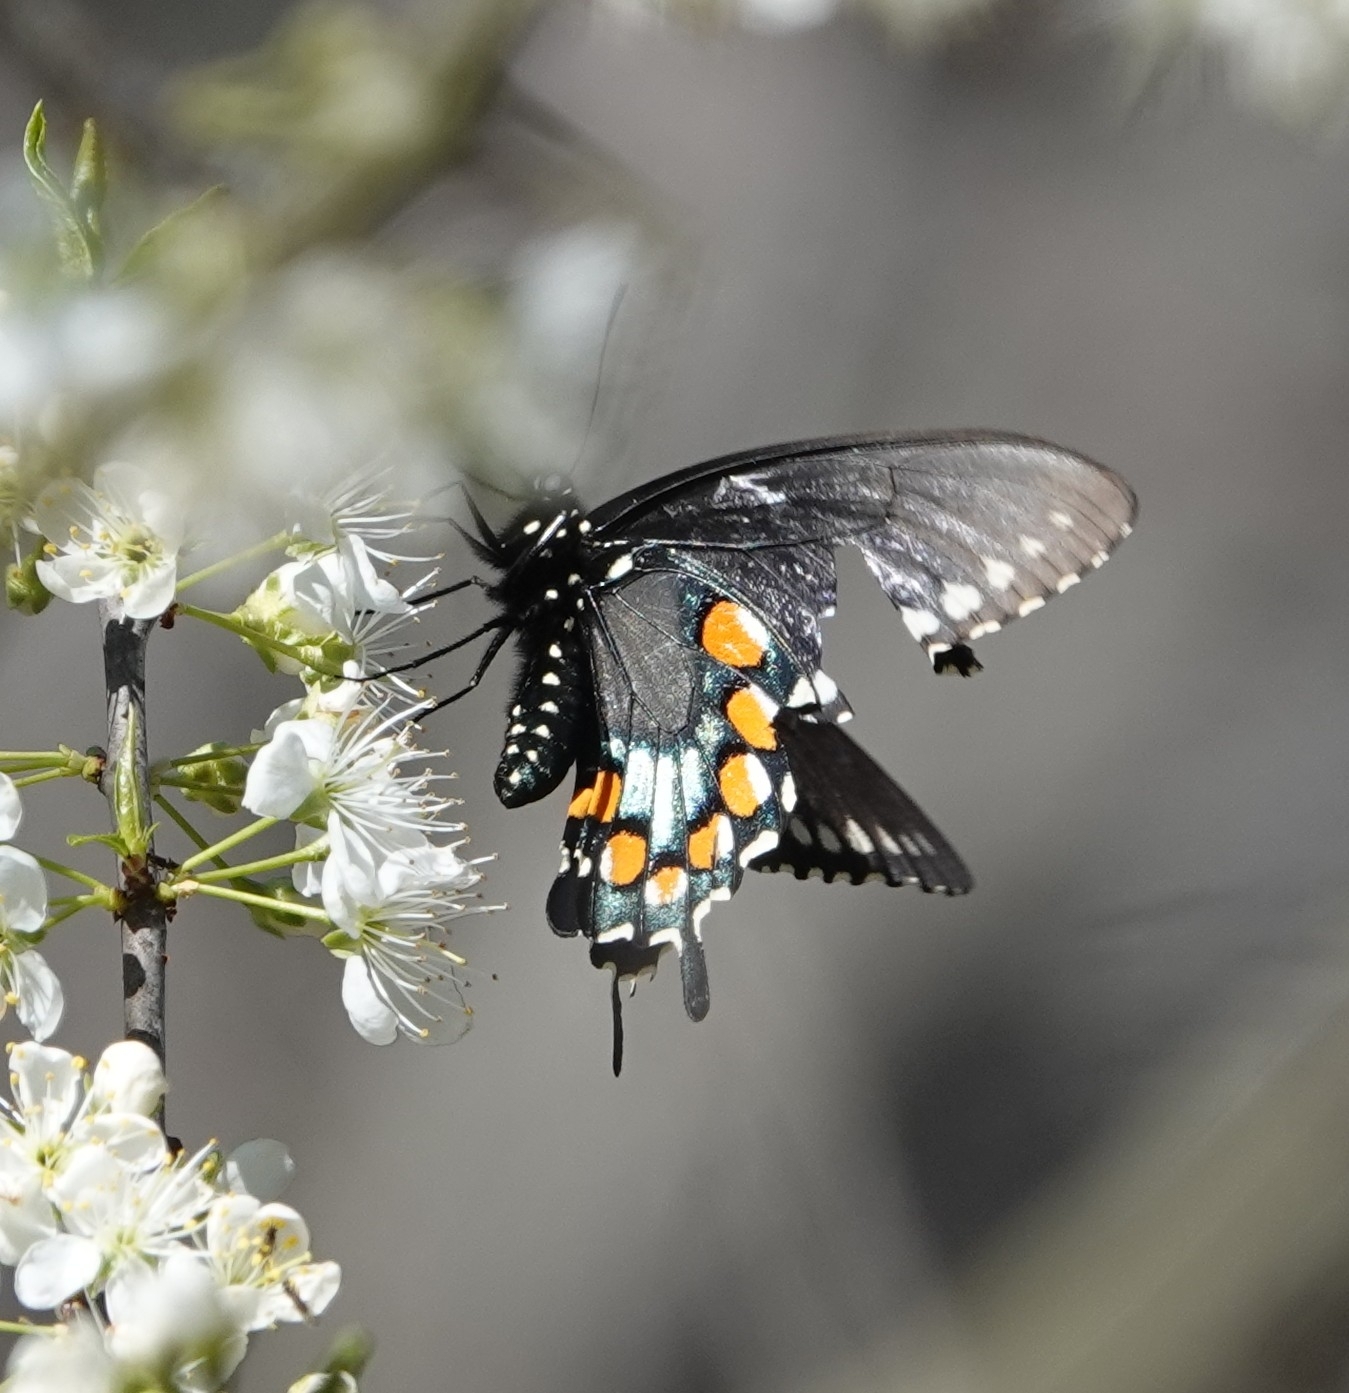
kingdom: Animalia
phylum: Arthropoda
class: Insecta
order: Lepidoptera
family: Papilionidae
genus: Battus
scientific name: Battus philenor
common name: Pipevine swallowtail
